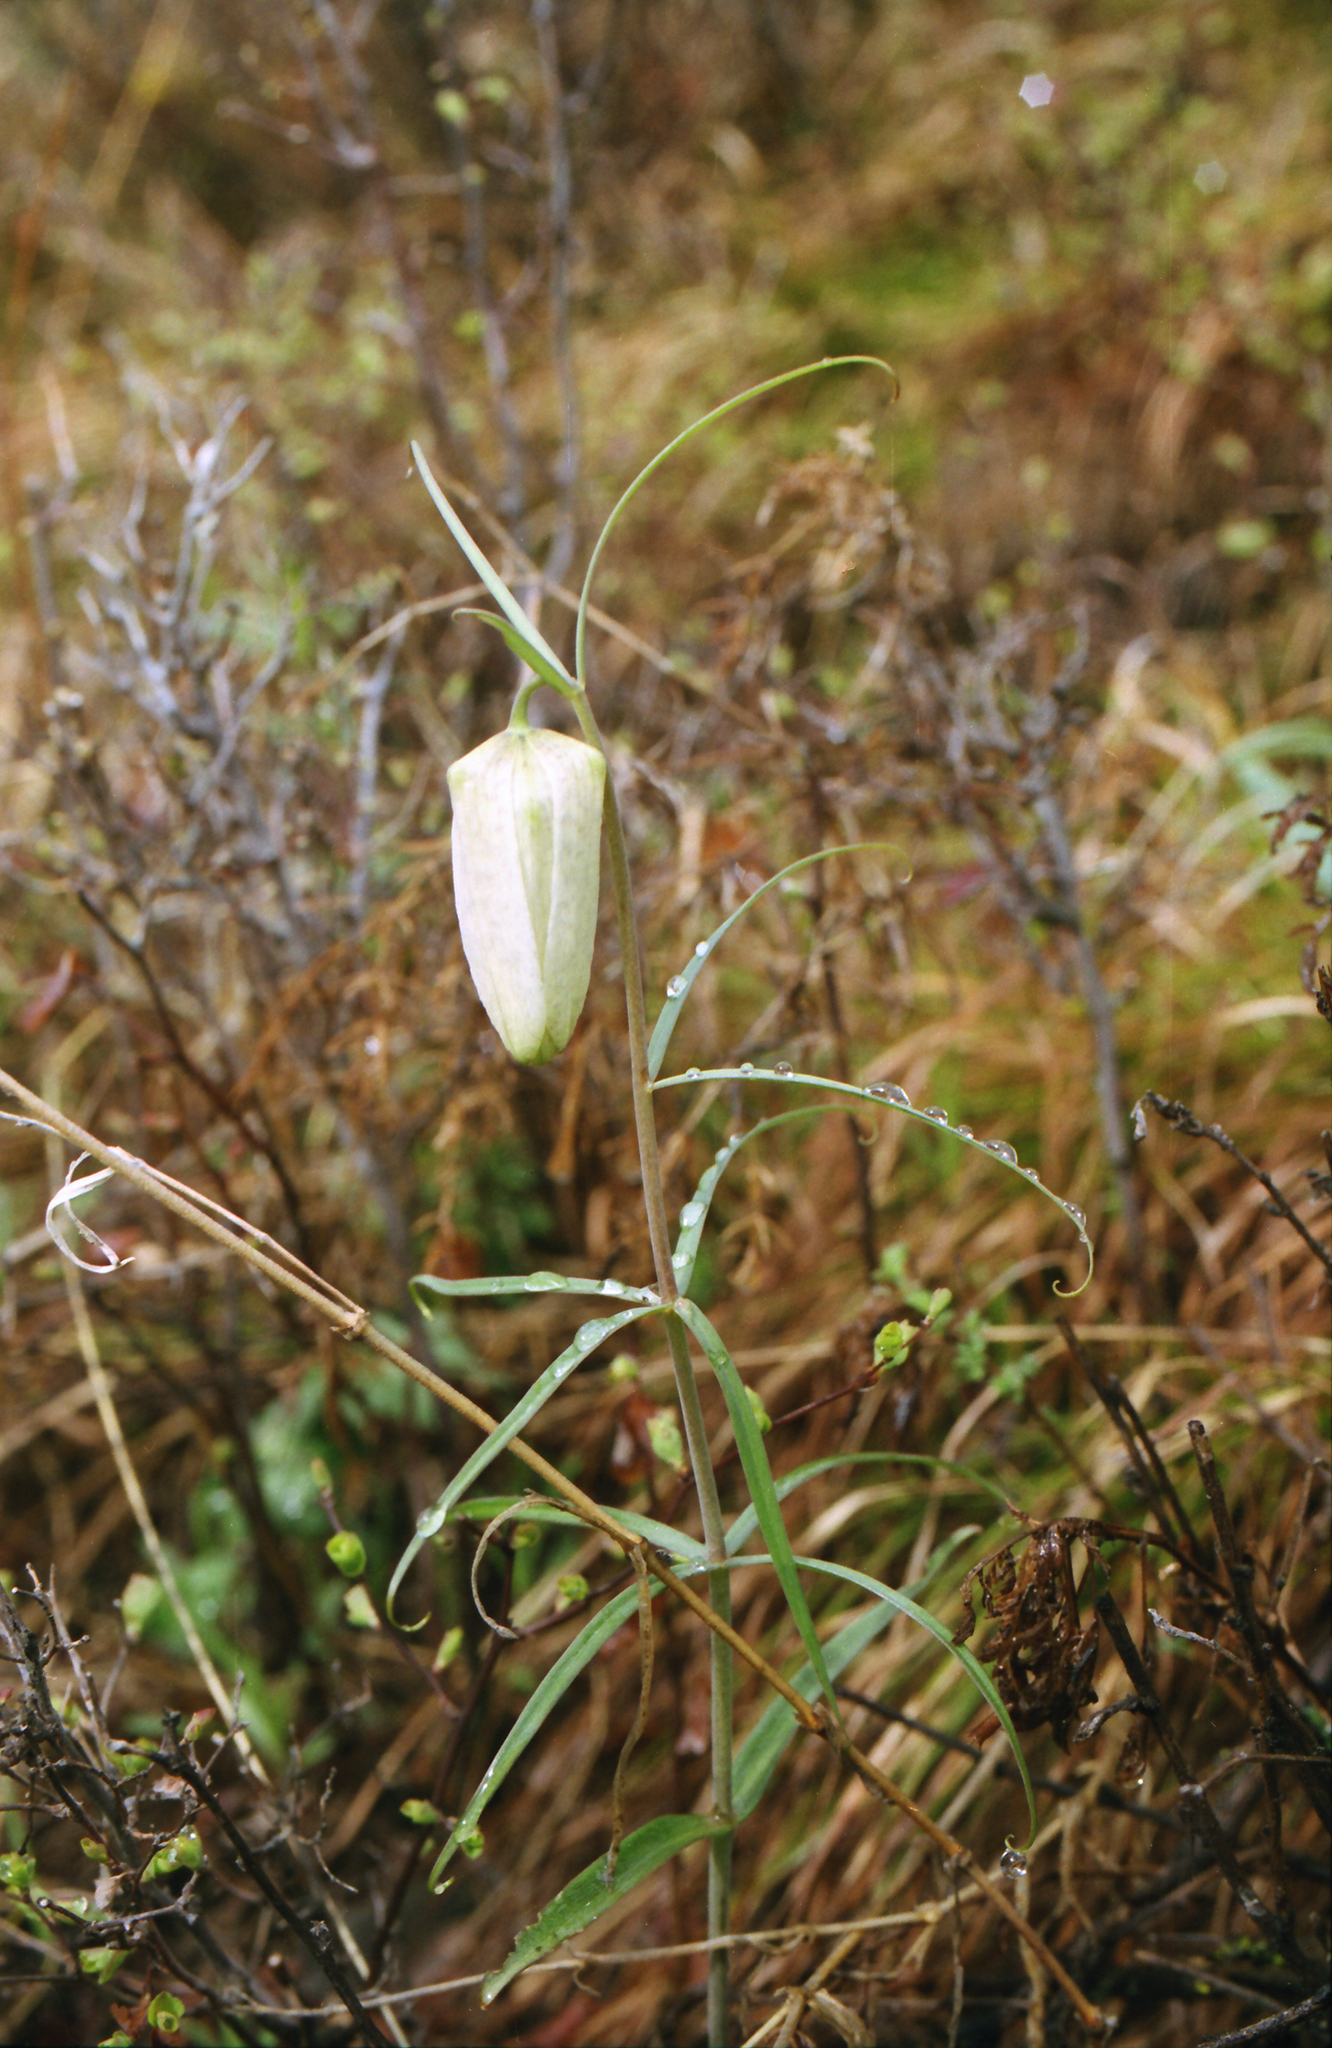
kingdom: Plantae
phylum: Tracheophyta
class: Liliopsida
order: Liliales
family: Liliaceae
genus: Fritillaria
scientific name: Fritillaria verticillata
